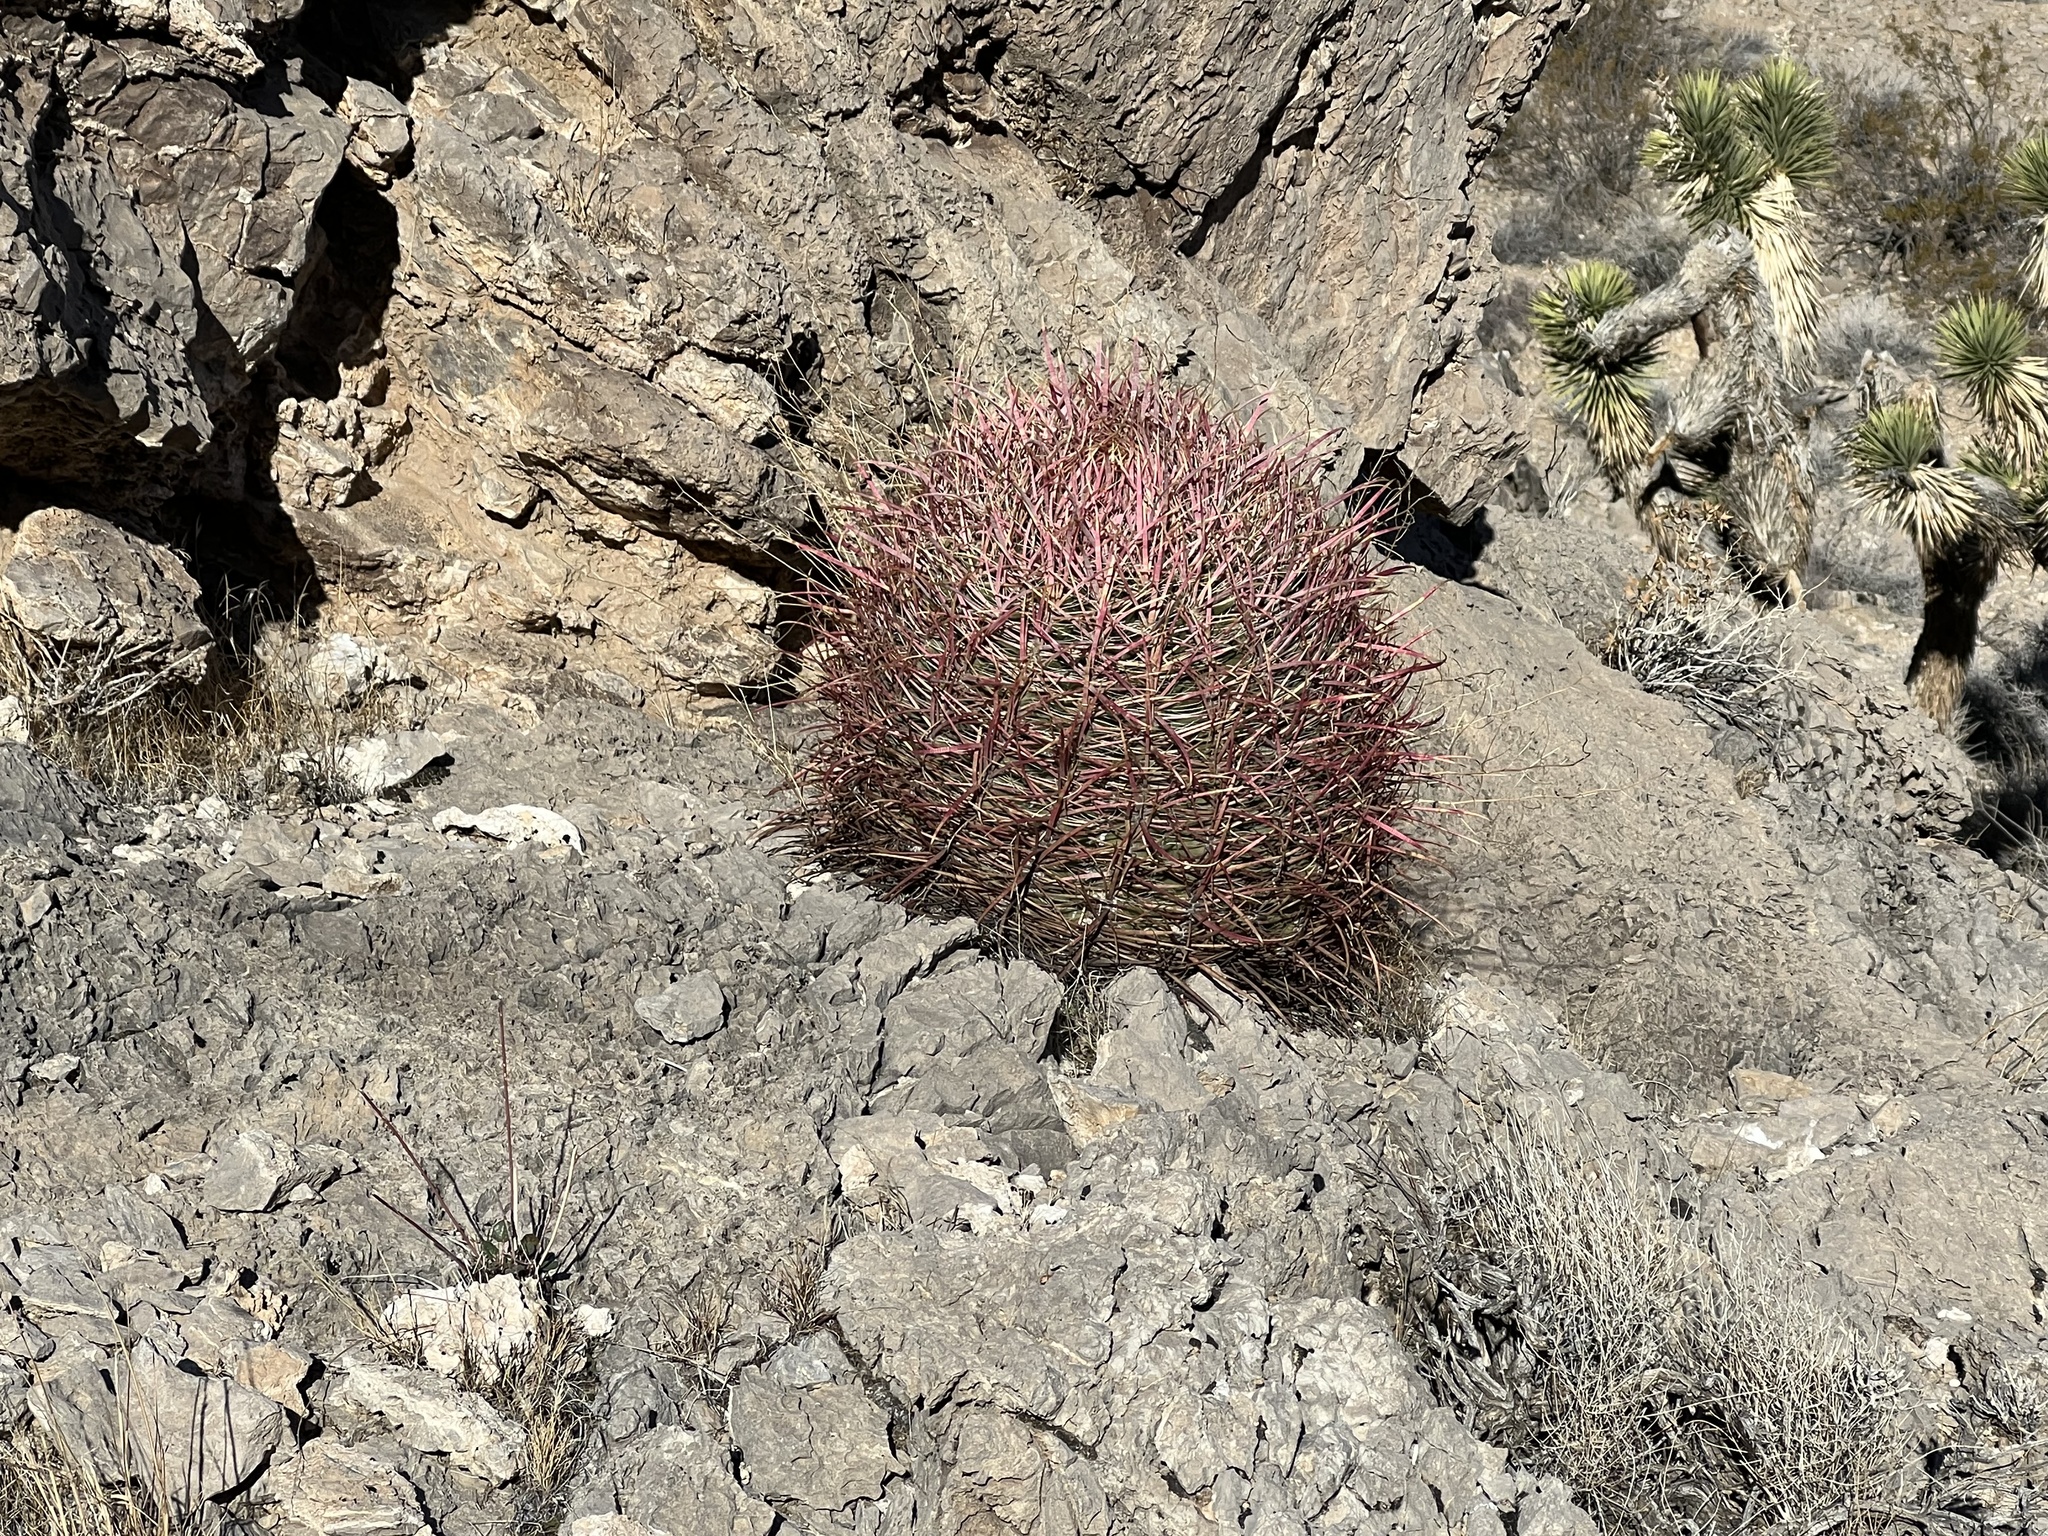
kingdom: Plantae
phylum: Tracheophyta
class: Magnoliopsida
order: Caryophyllales
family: Cactaceae
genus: Ferocactus
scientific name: Ferocactus cylindraceus
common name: California barrel cactus
